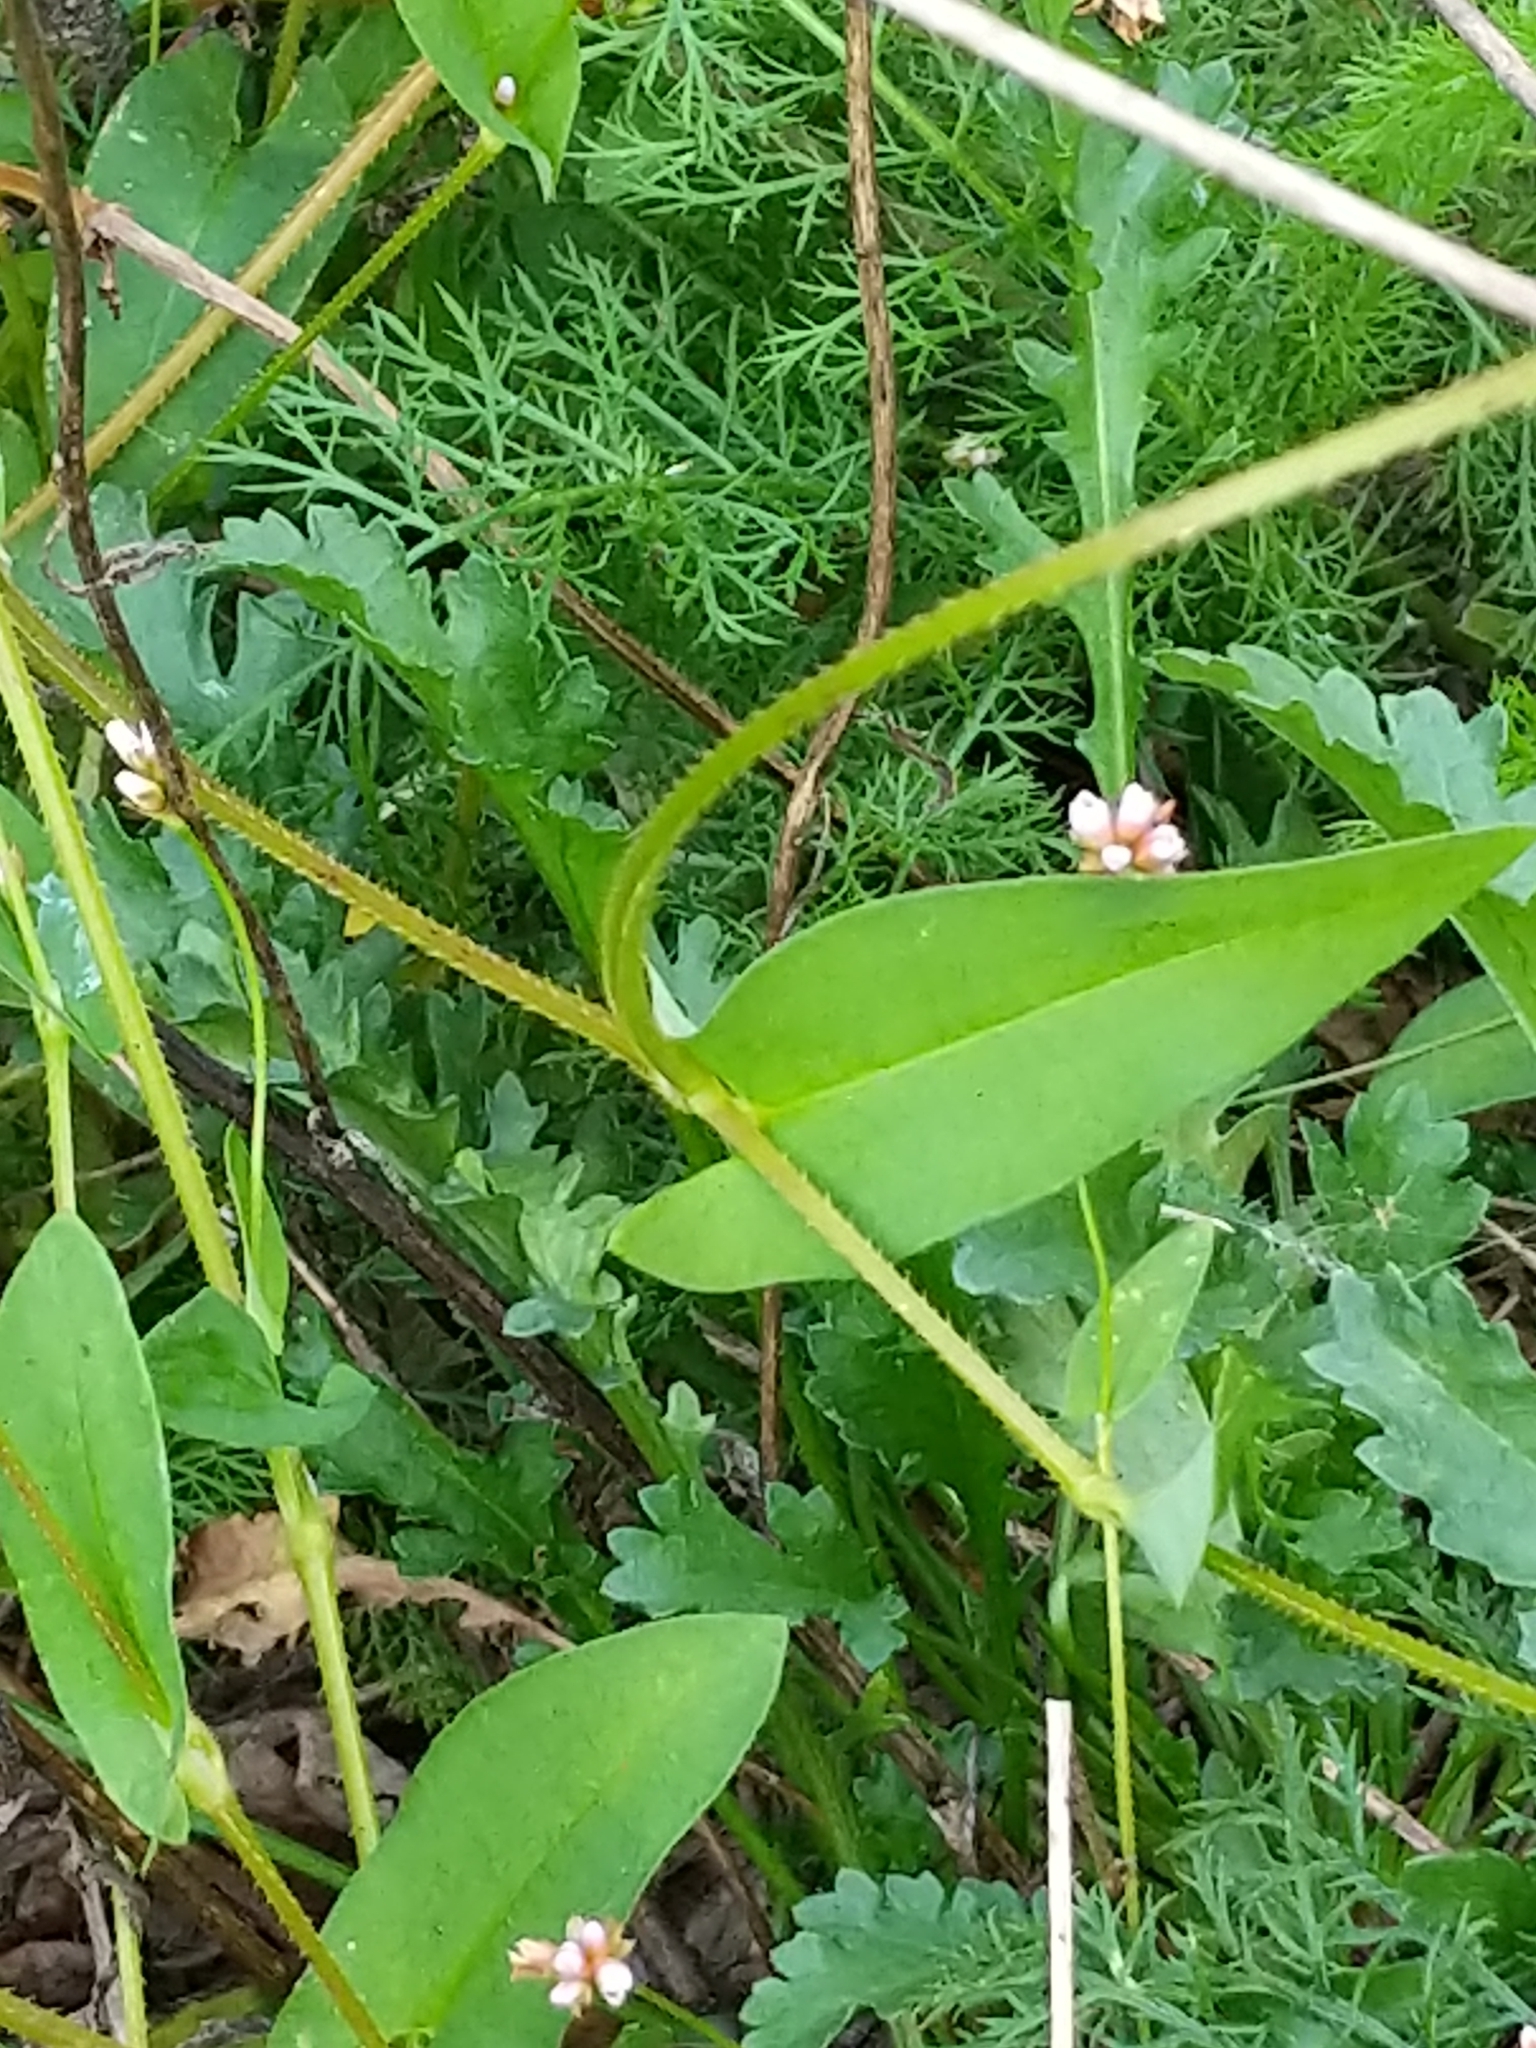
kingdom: Plantae
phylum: Tracheophyta
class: Magnoliopsida
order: Caryophyllales
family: Polygonaceae
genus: Persicaria
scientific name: Persicaria sagittata
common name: American tearthumb
